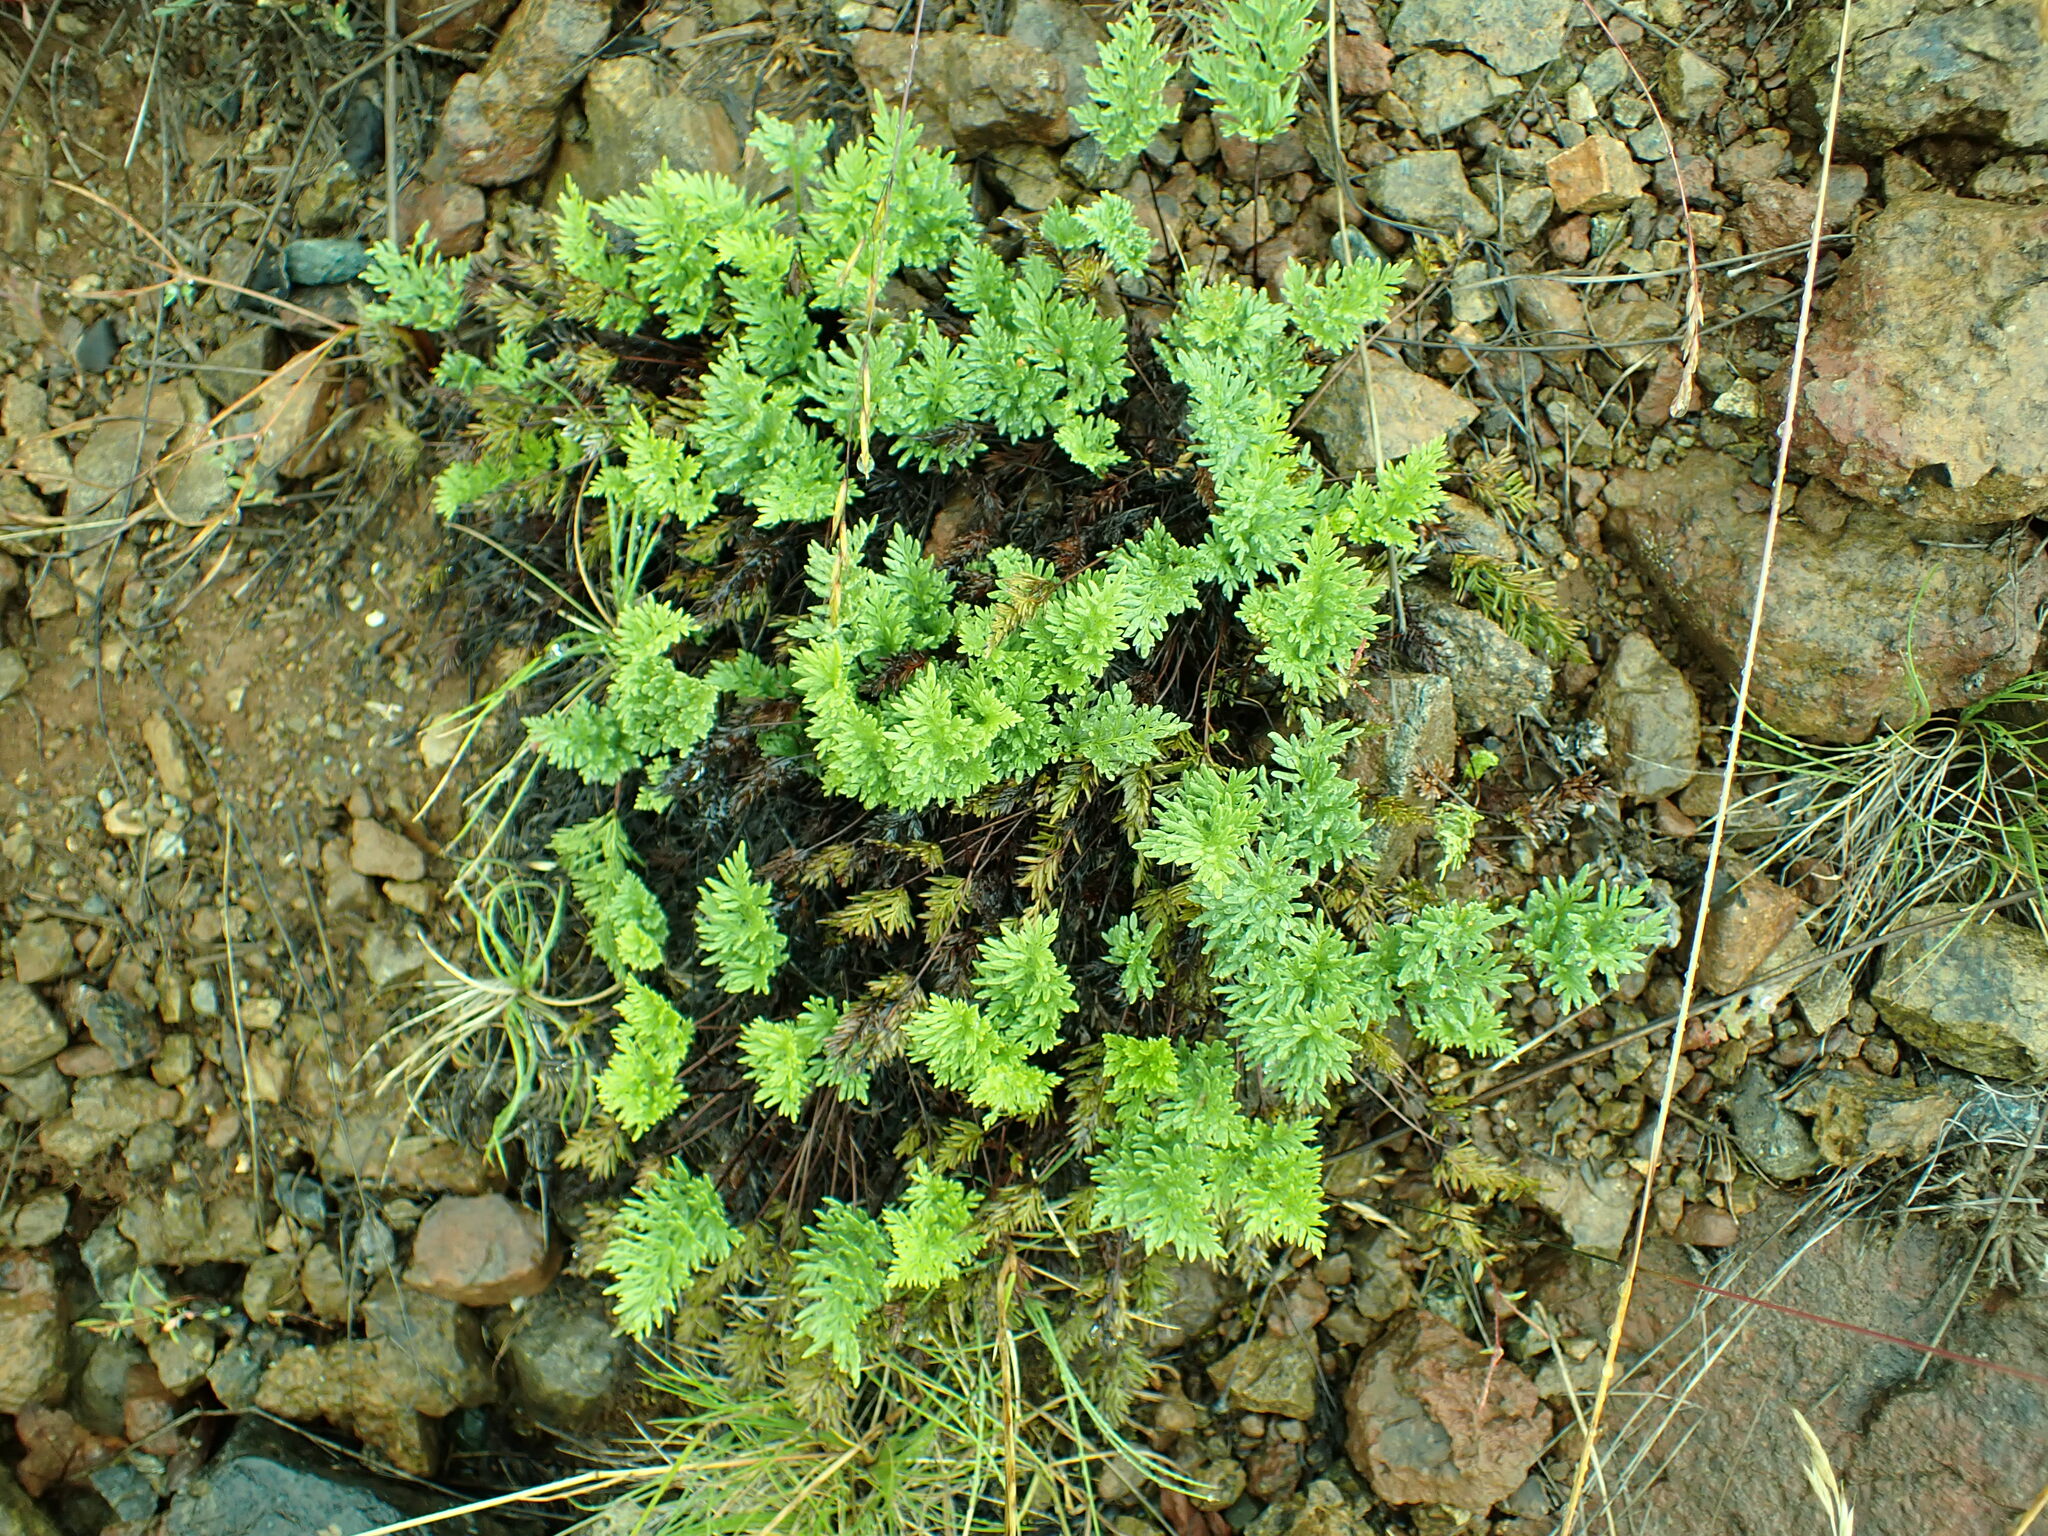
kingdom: Plantae
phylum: Tracheophyta
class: Polypodiopsida
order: Polypodiales
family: Pteridaceae
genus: Aspidotis
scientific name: Aspidotis densa
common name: Indian's dream
